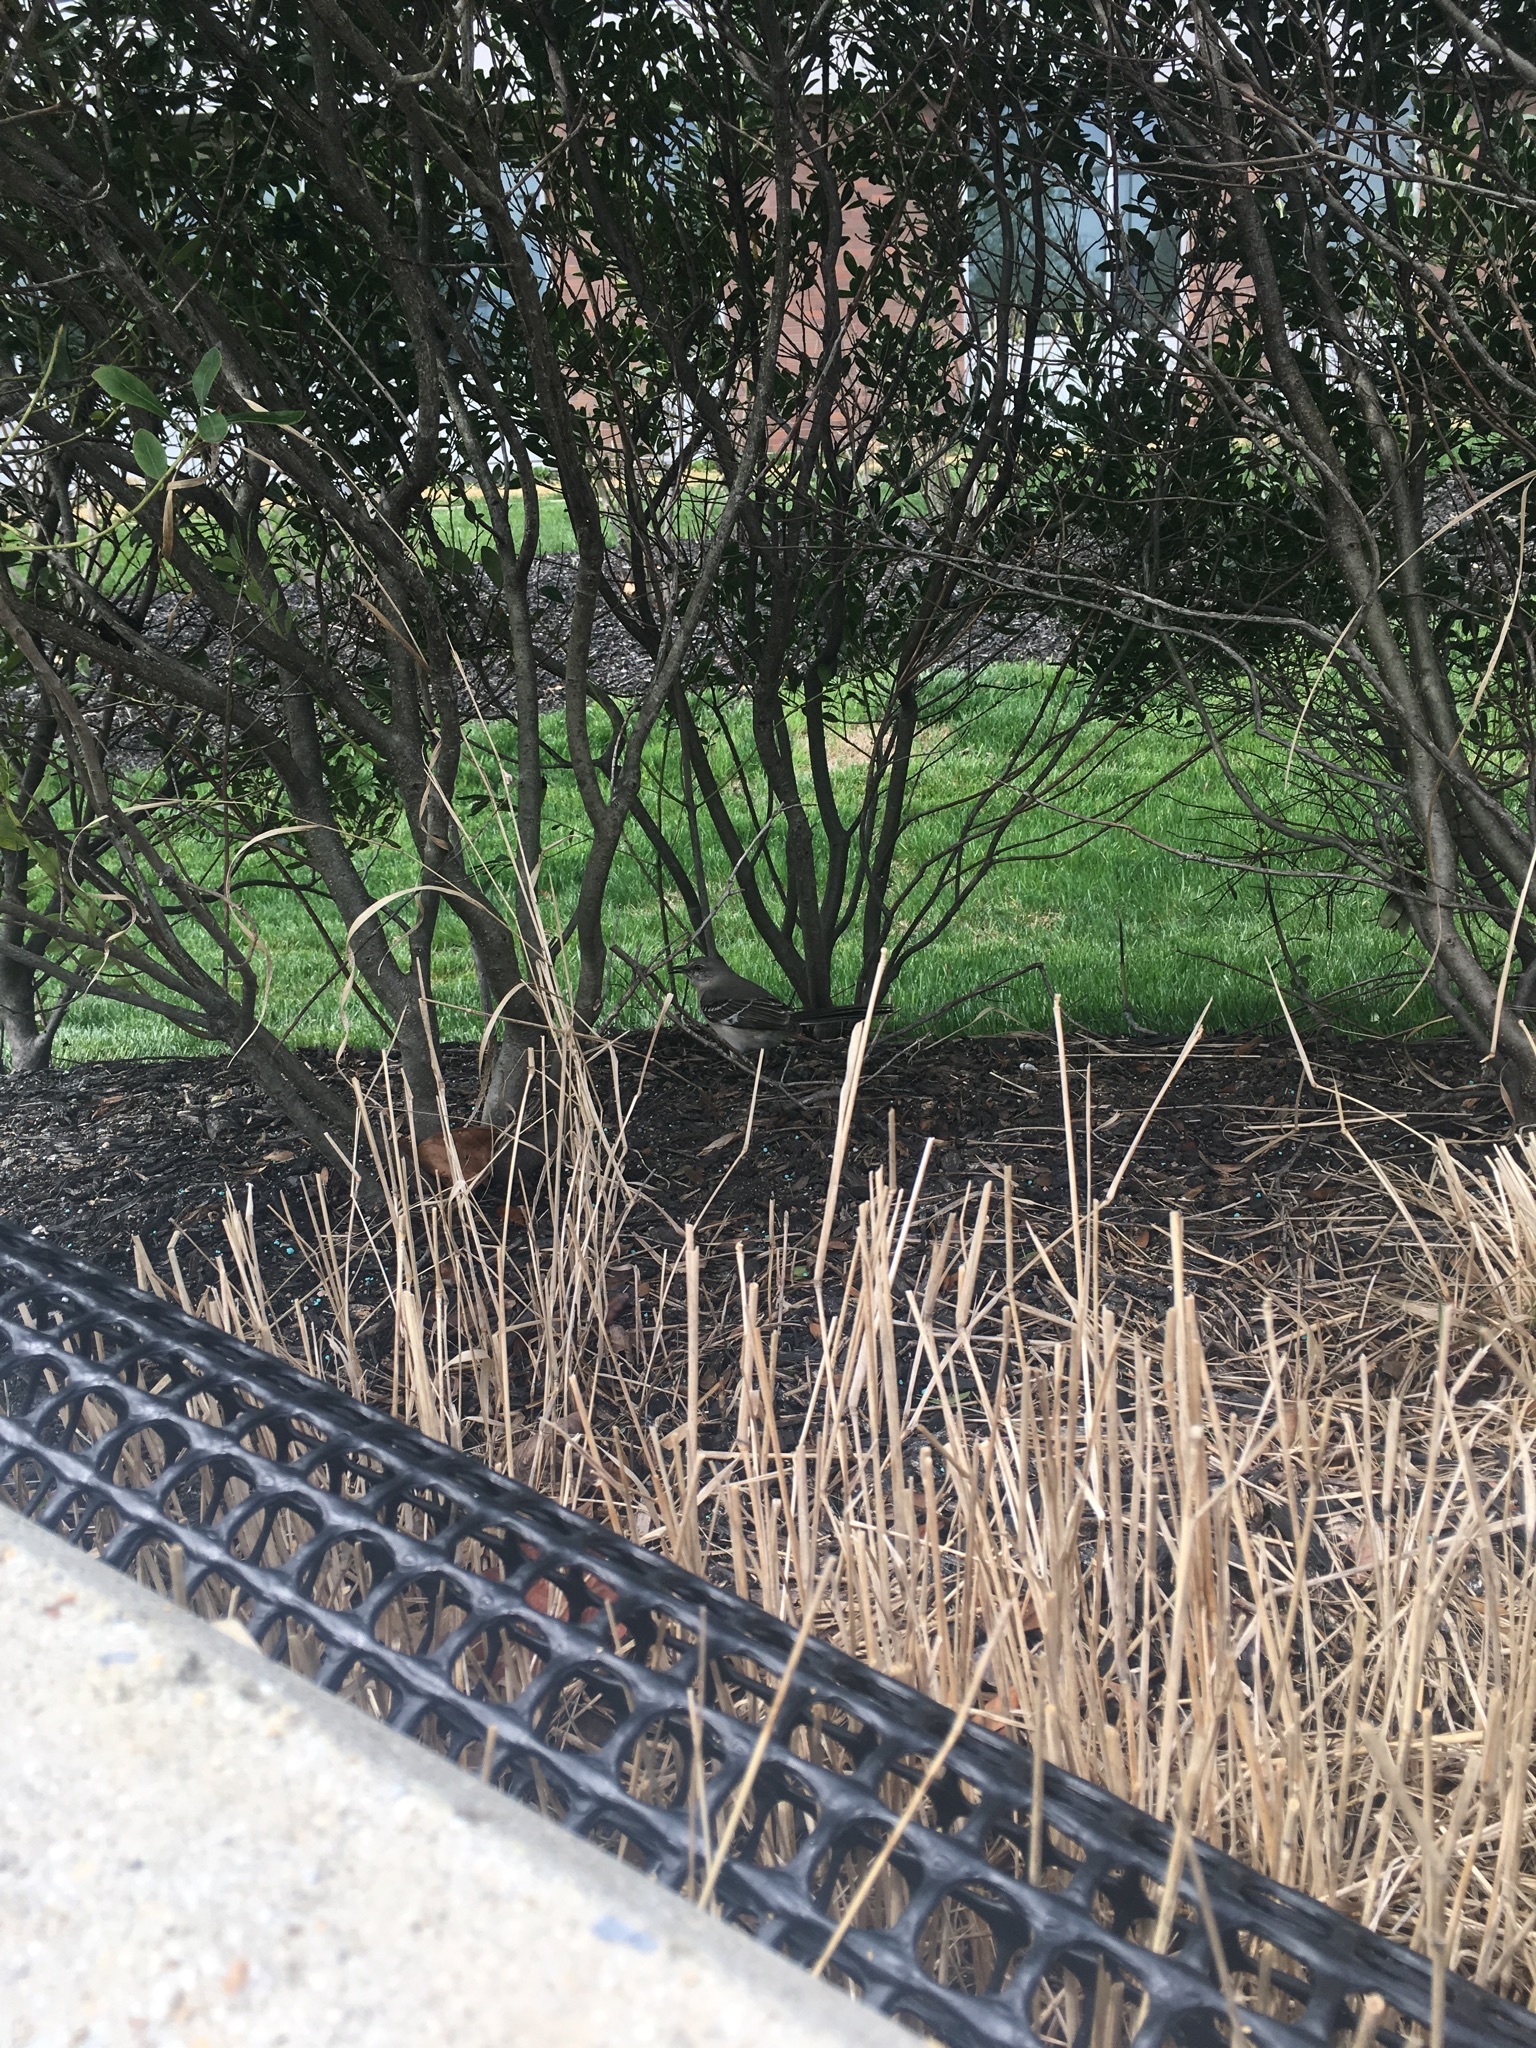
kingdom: Animalia
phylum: Chordata
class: Aves
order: Passeriformes
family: Mimidae
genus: Mimus
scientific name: Mimus polyglottos
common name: Northern mockingbird
